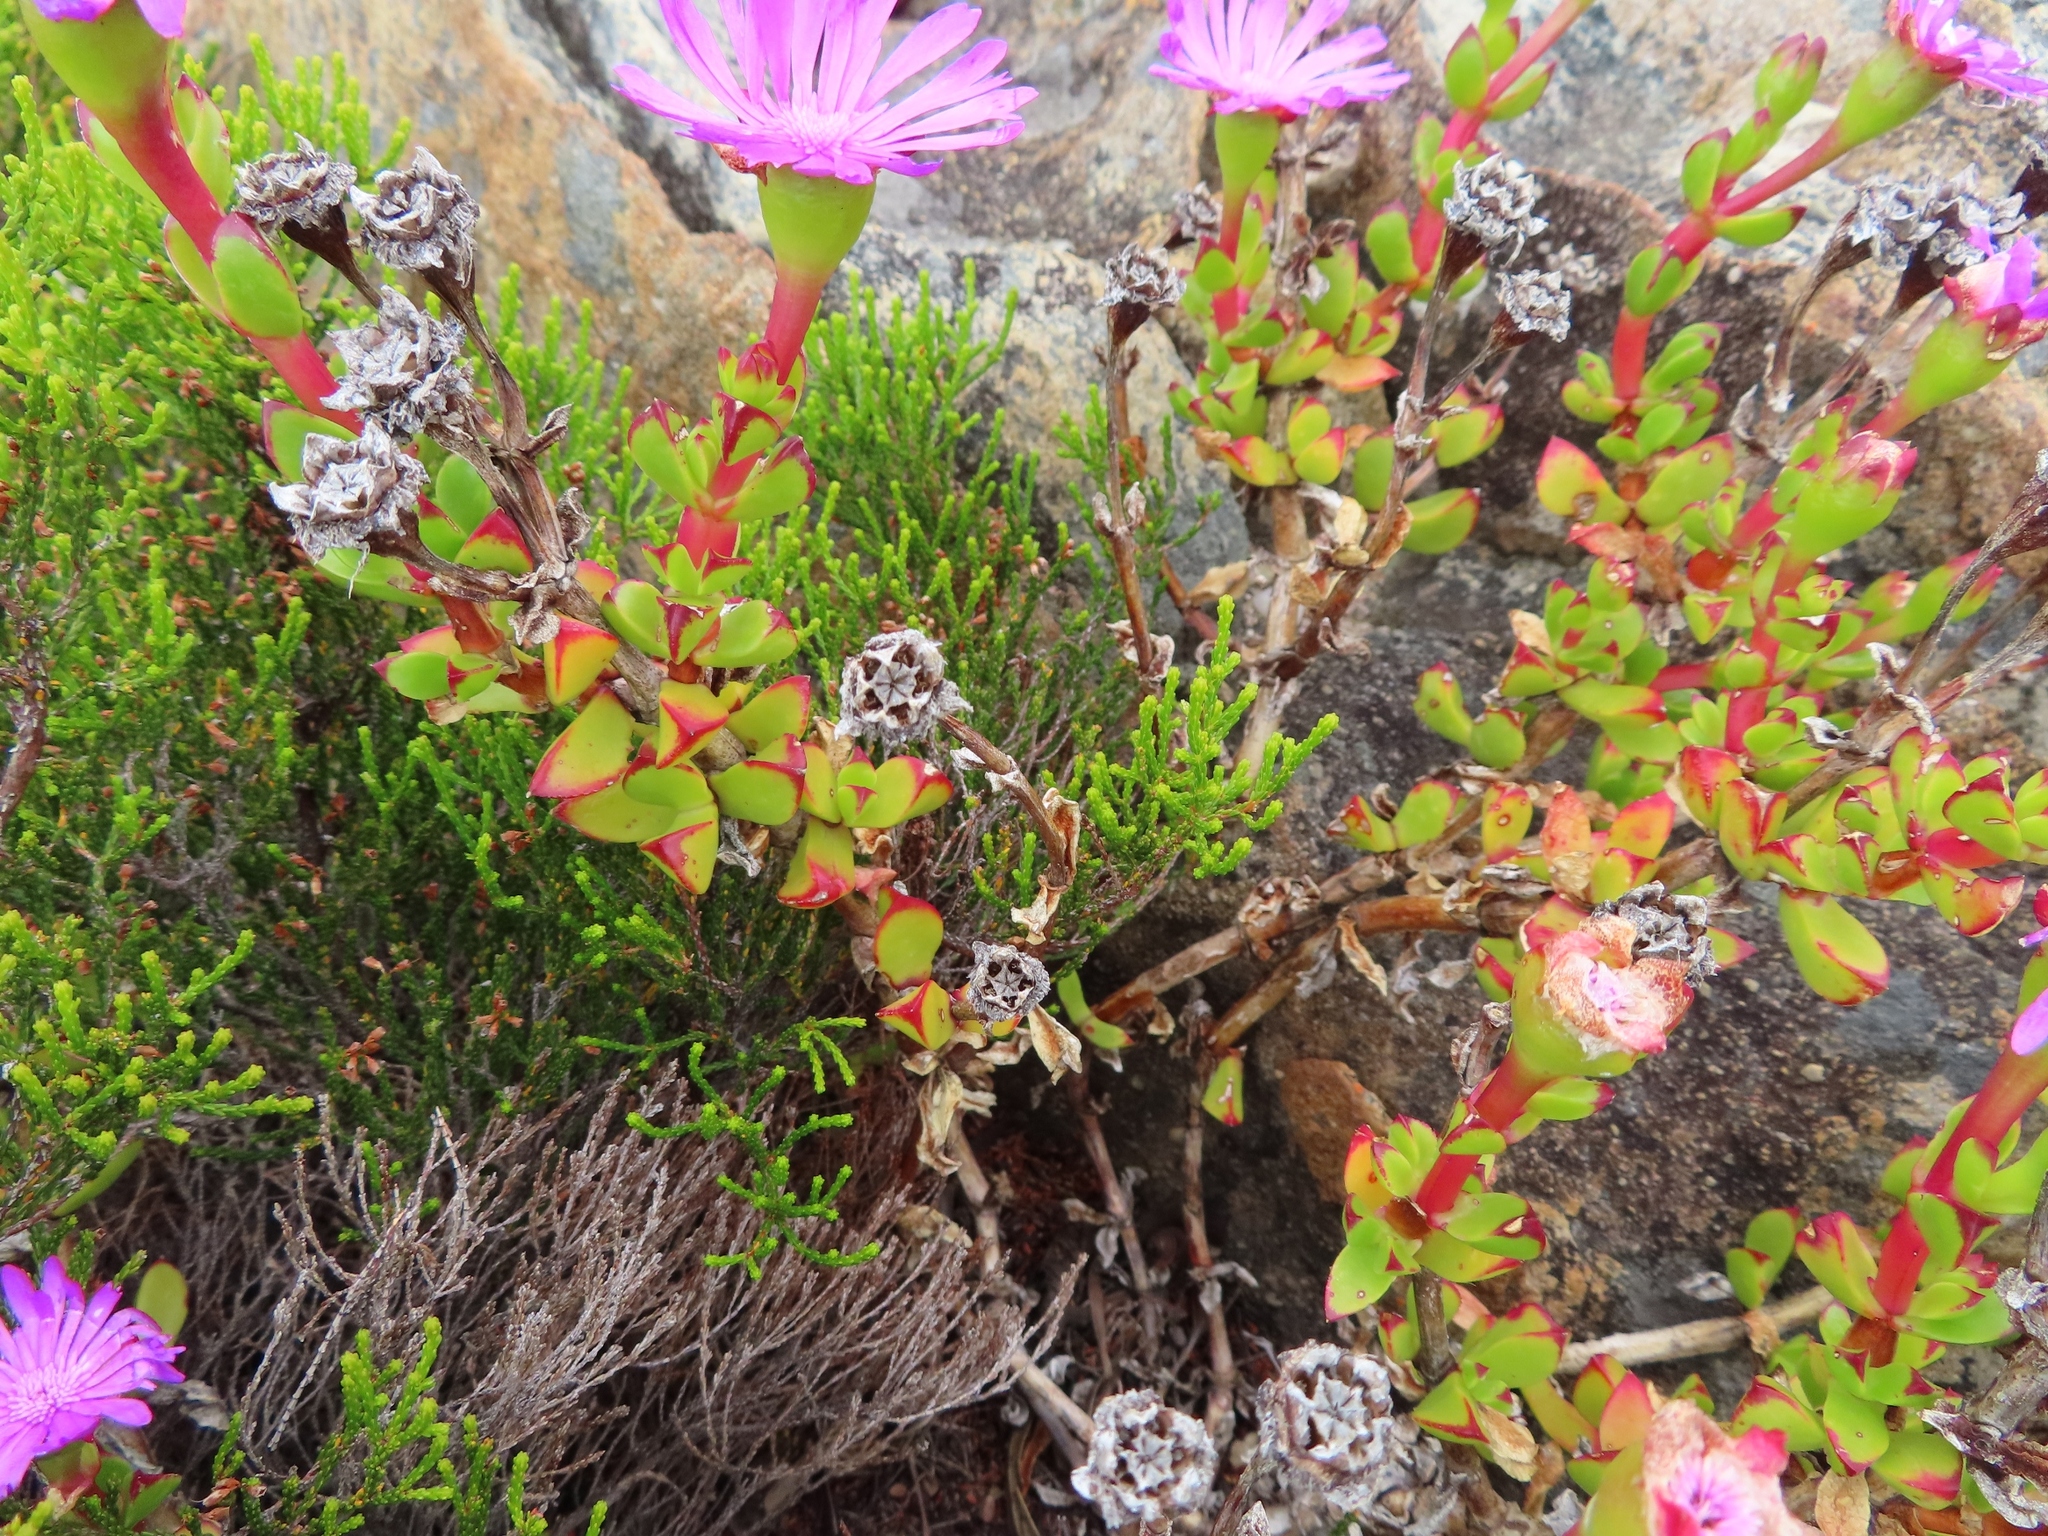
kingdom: Plantae
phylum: Tracheophyta
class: Magnoliopsida
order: Caryophyllales
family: Aizoaceae
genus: Erepsia
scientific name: Erepsia inclaudens
